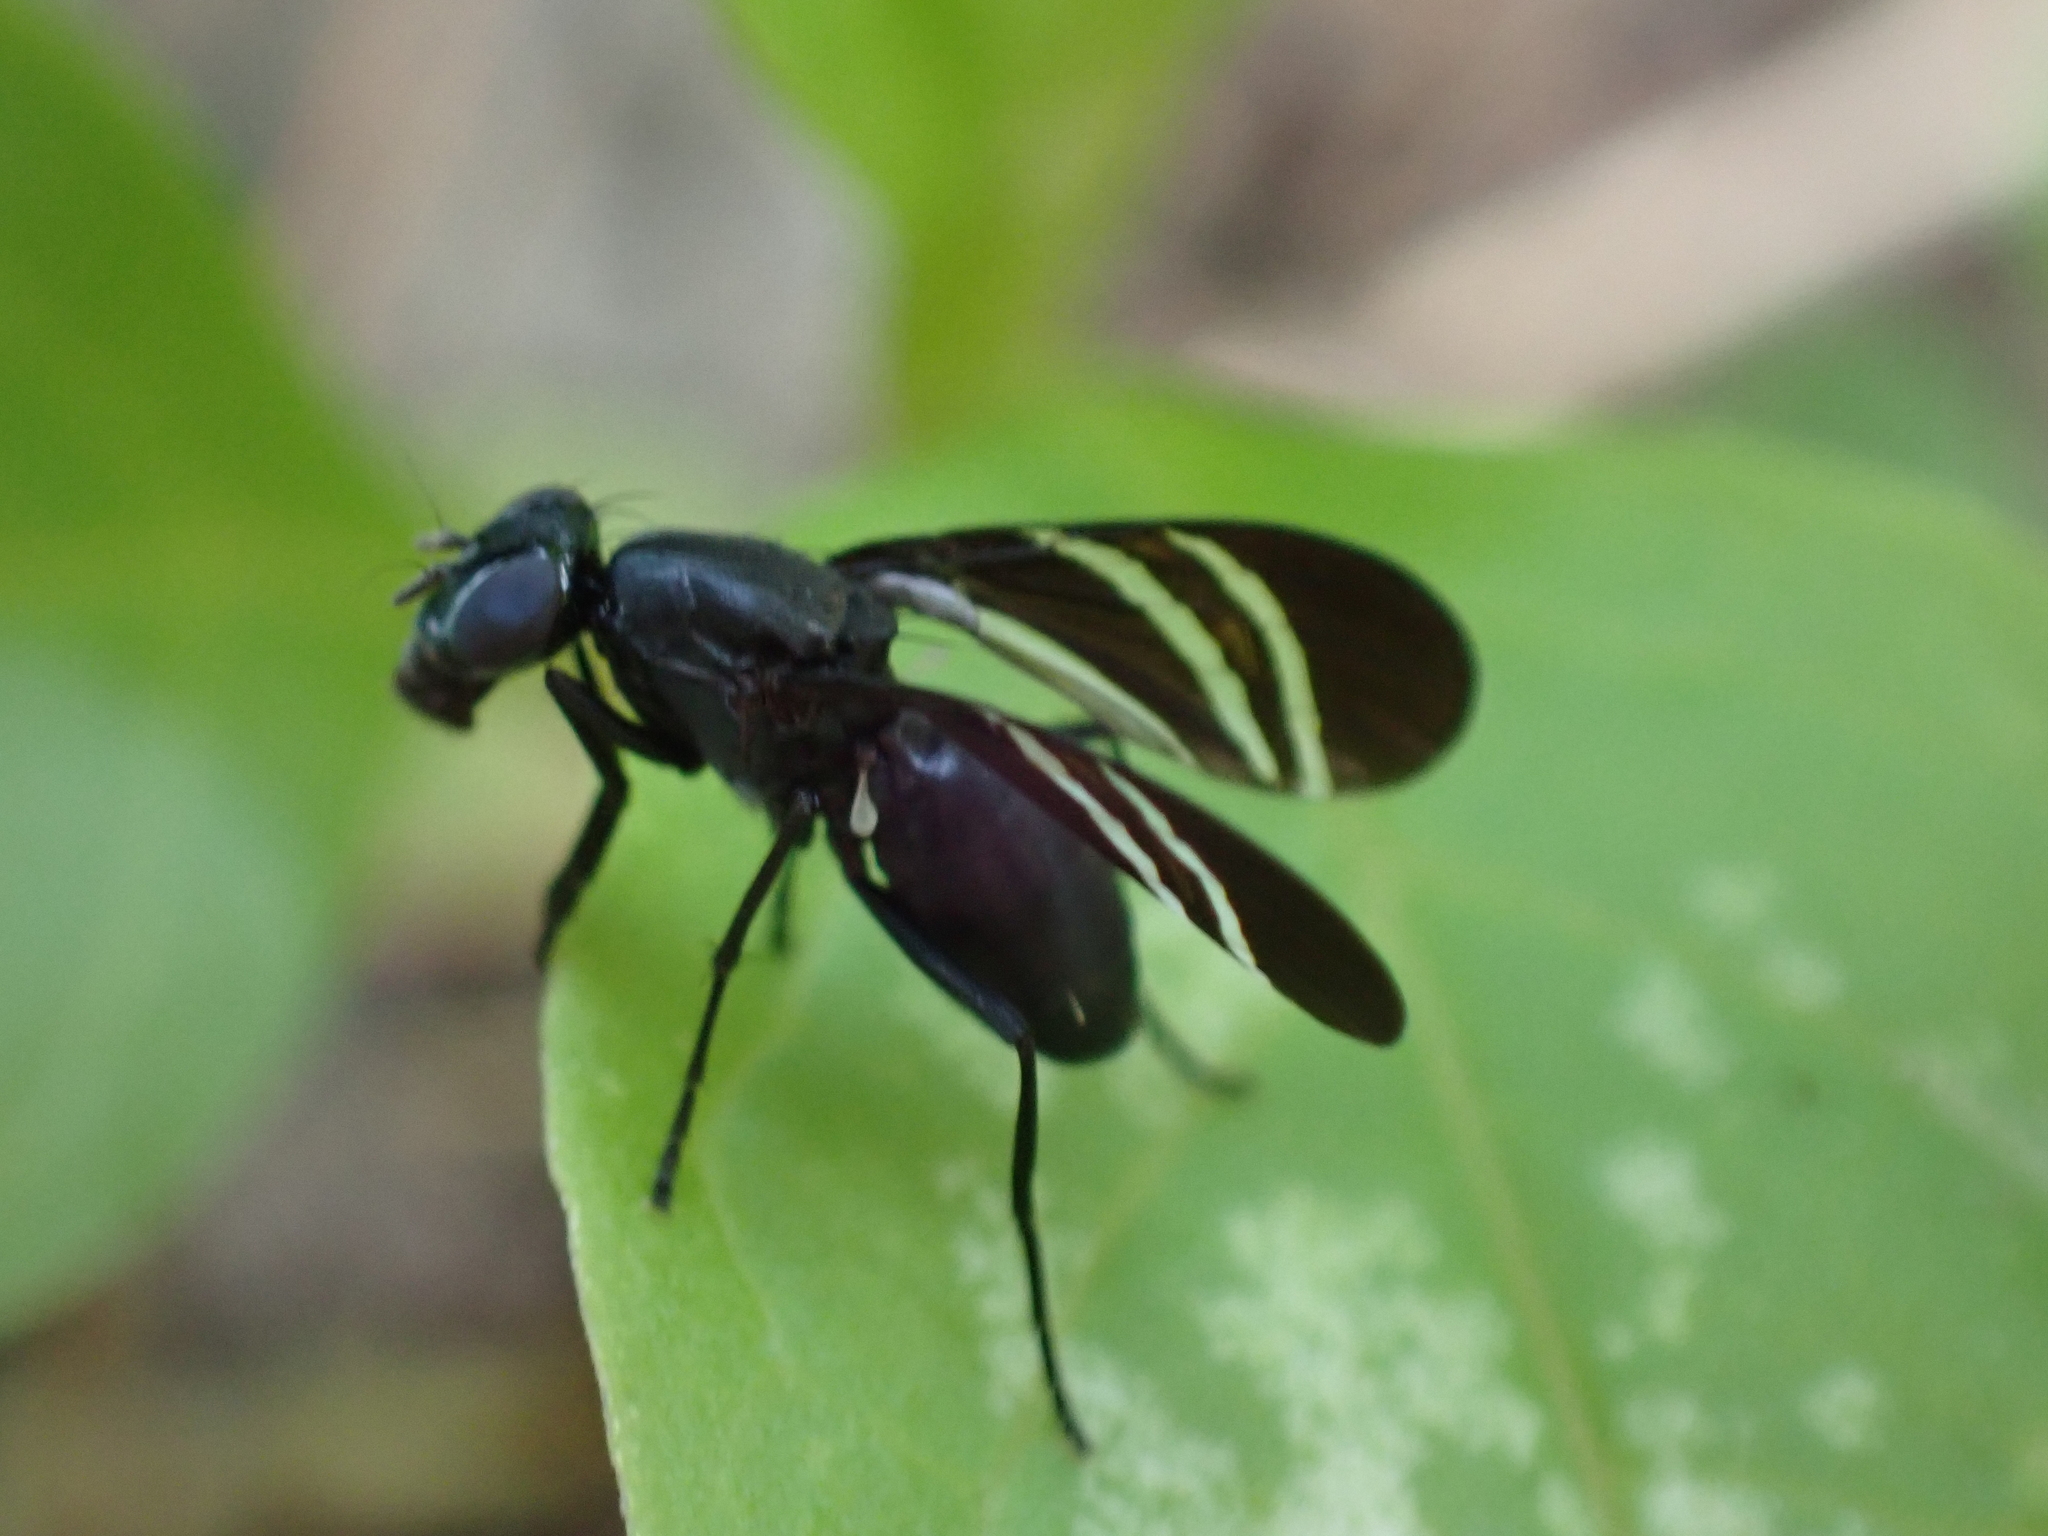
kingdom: Animalia
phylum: Arthropoda
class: Insecta
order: Diptera
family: Ulidiidae
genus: Tritoxa
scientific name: Tritoxa flexa
